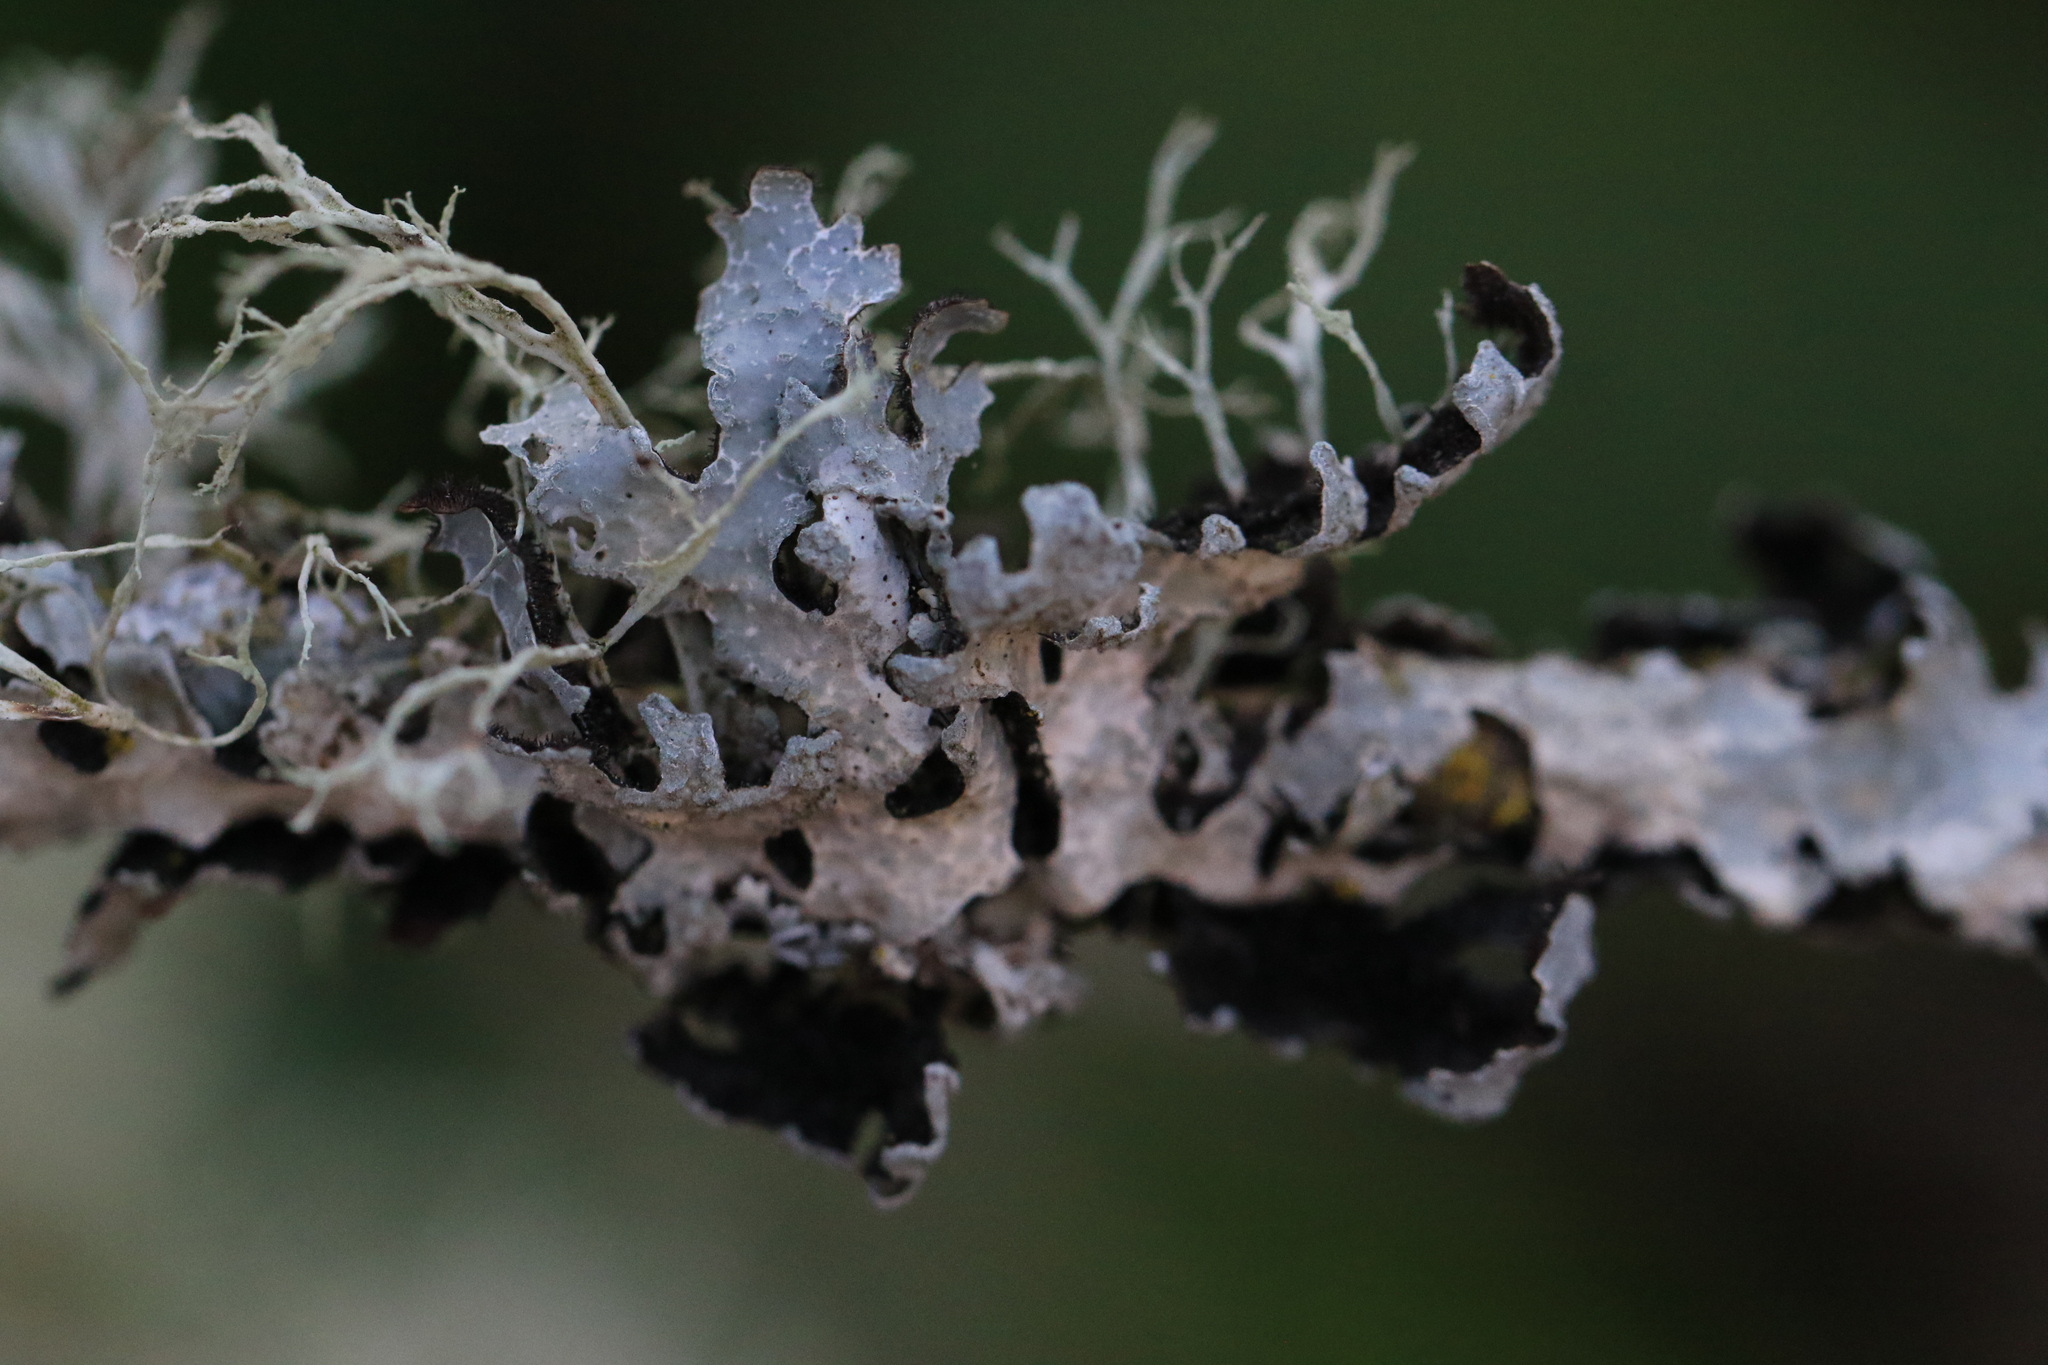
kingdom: Fungi
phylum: Ascomycota
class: Lecanoromycetes
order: Lecanorales
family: Parmeliaceae
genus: Parmelia
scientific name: Parmelia sulcata
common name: Netted shield lichen
